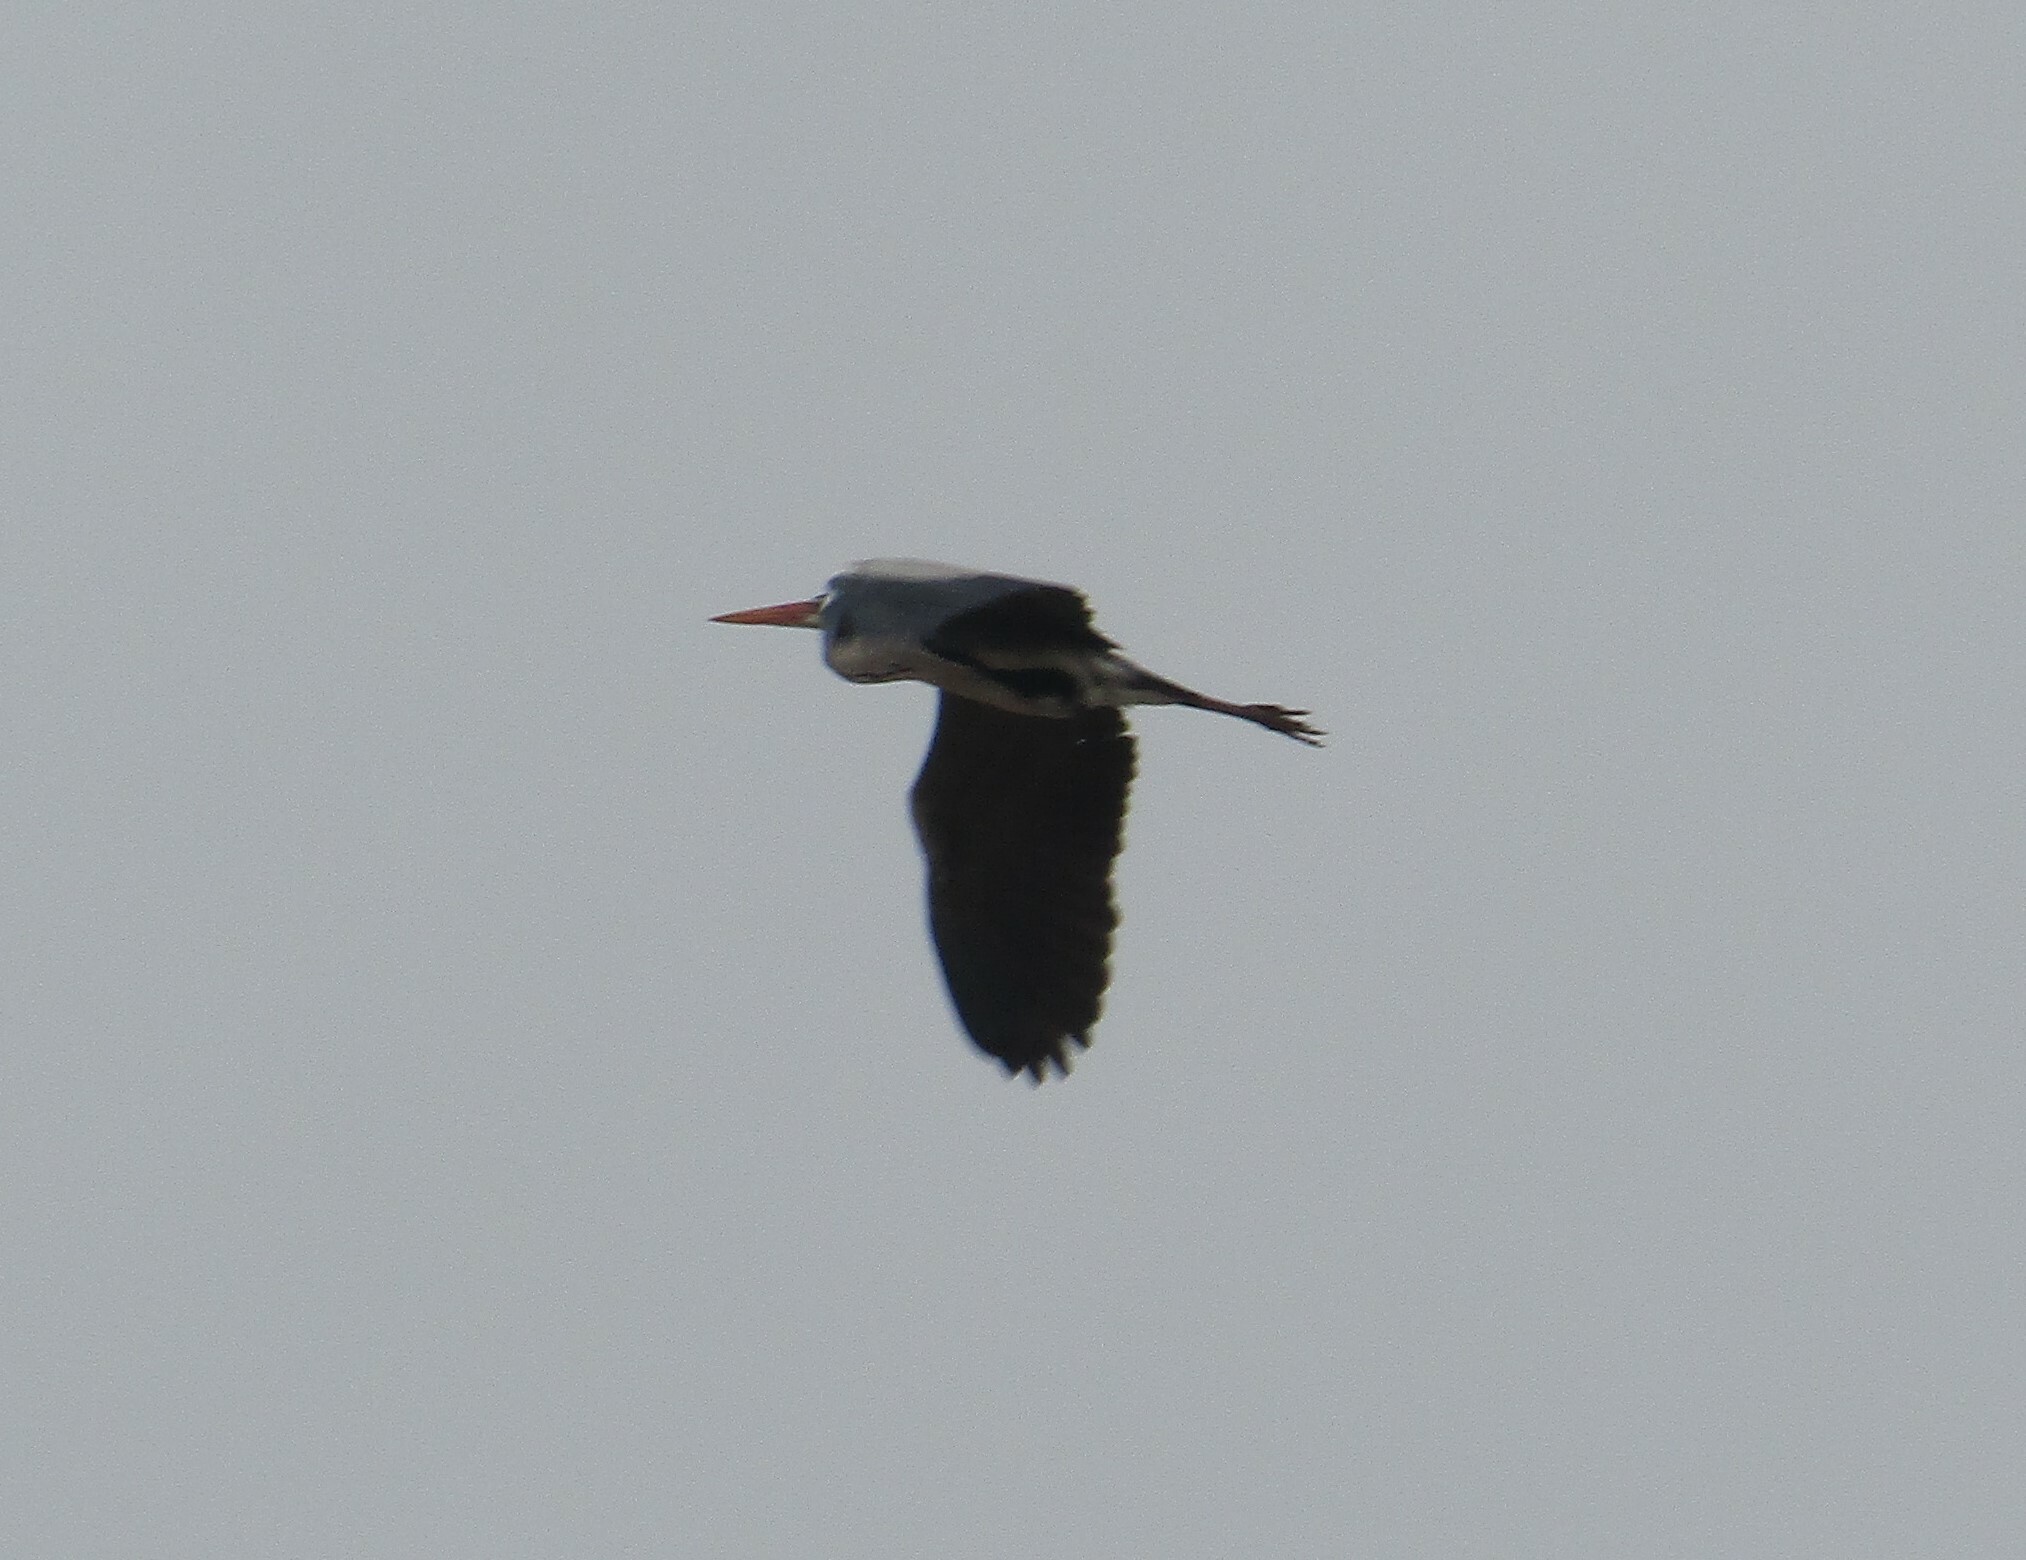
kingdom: Animalia
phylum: Chordata
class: Aves
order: Pelecaniformes
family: Ardeidae
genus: Ardea
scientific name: Ardea cinerea
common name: Grey heron
